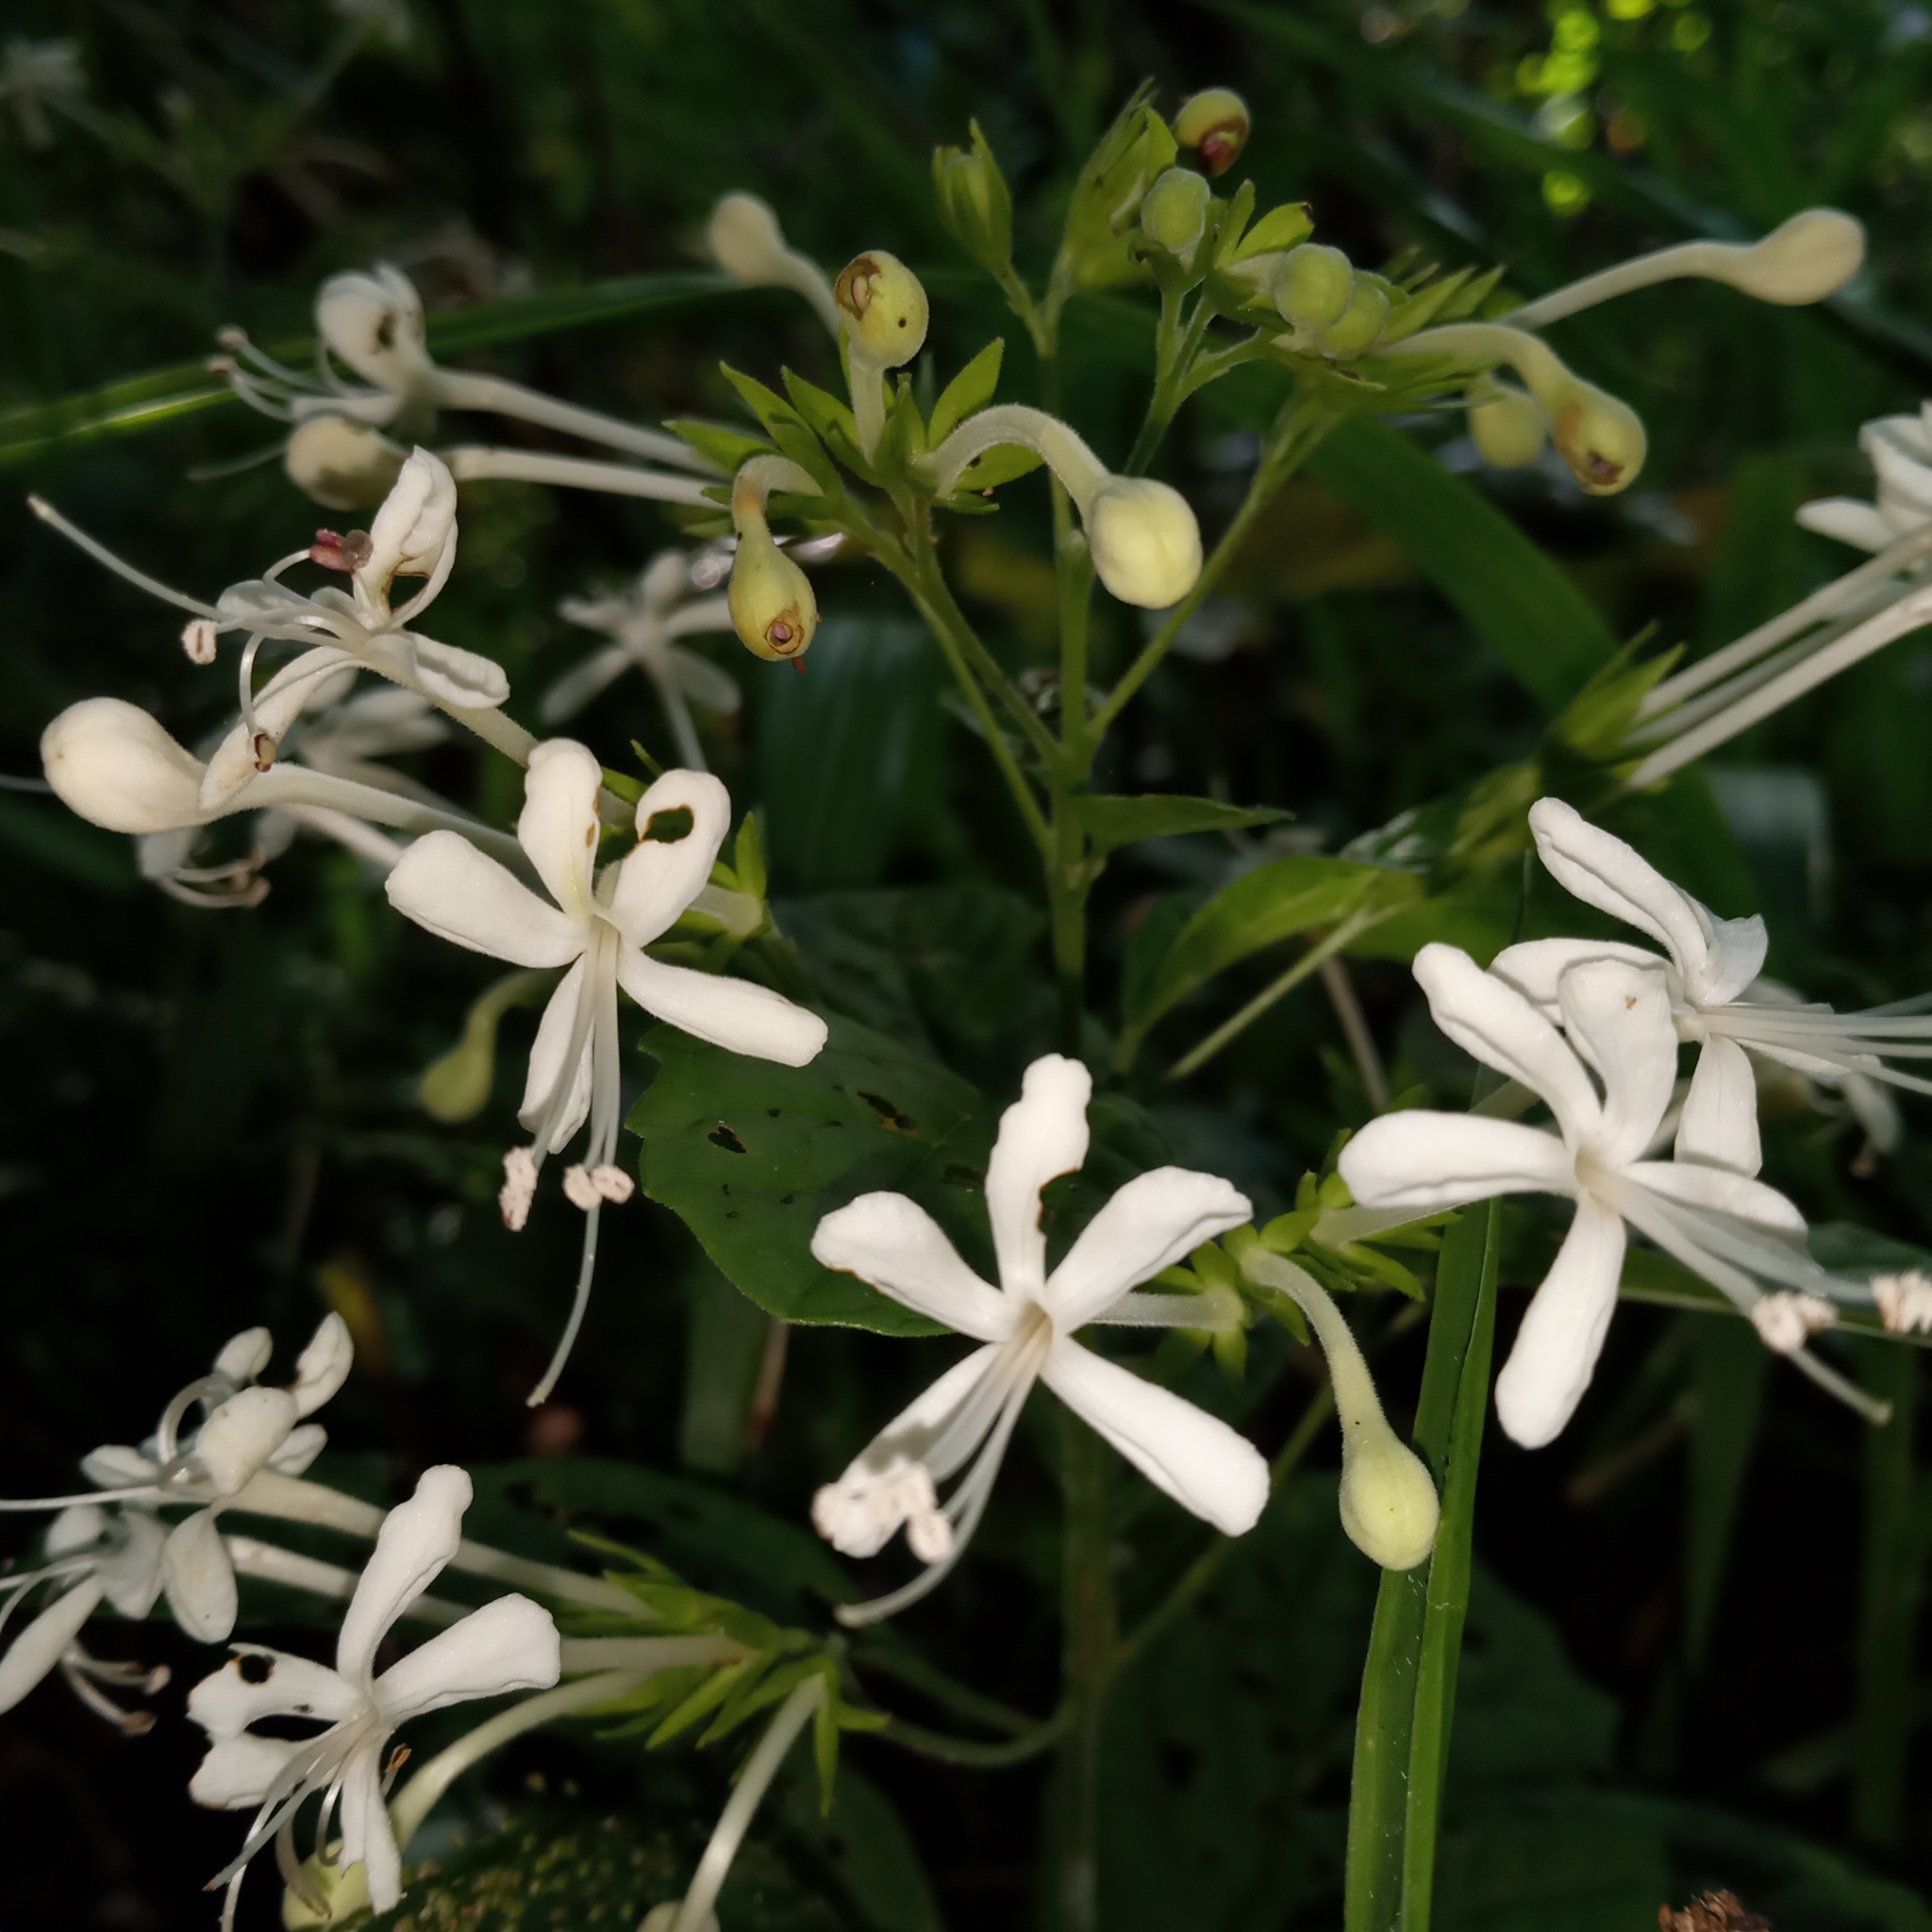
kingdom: Plantae
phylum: Tracheophyta
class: Magnoliopsida
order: Lamiales
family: Lamiaceae
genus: Clerodendrum
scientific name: Clerodendrum calamitosum
